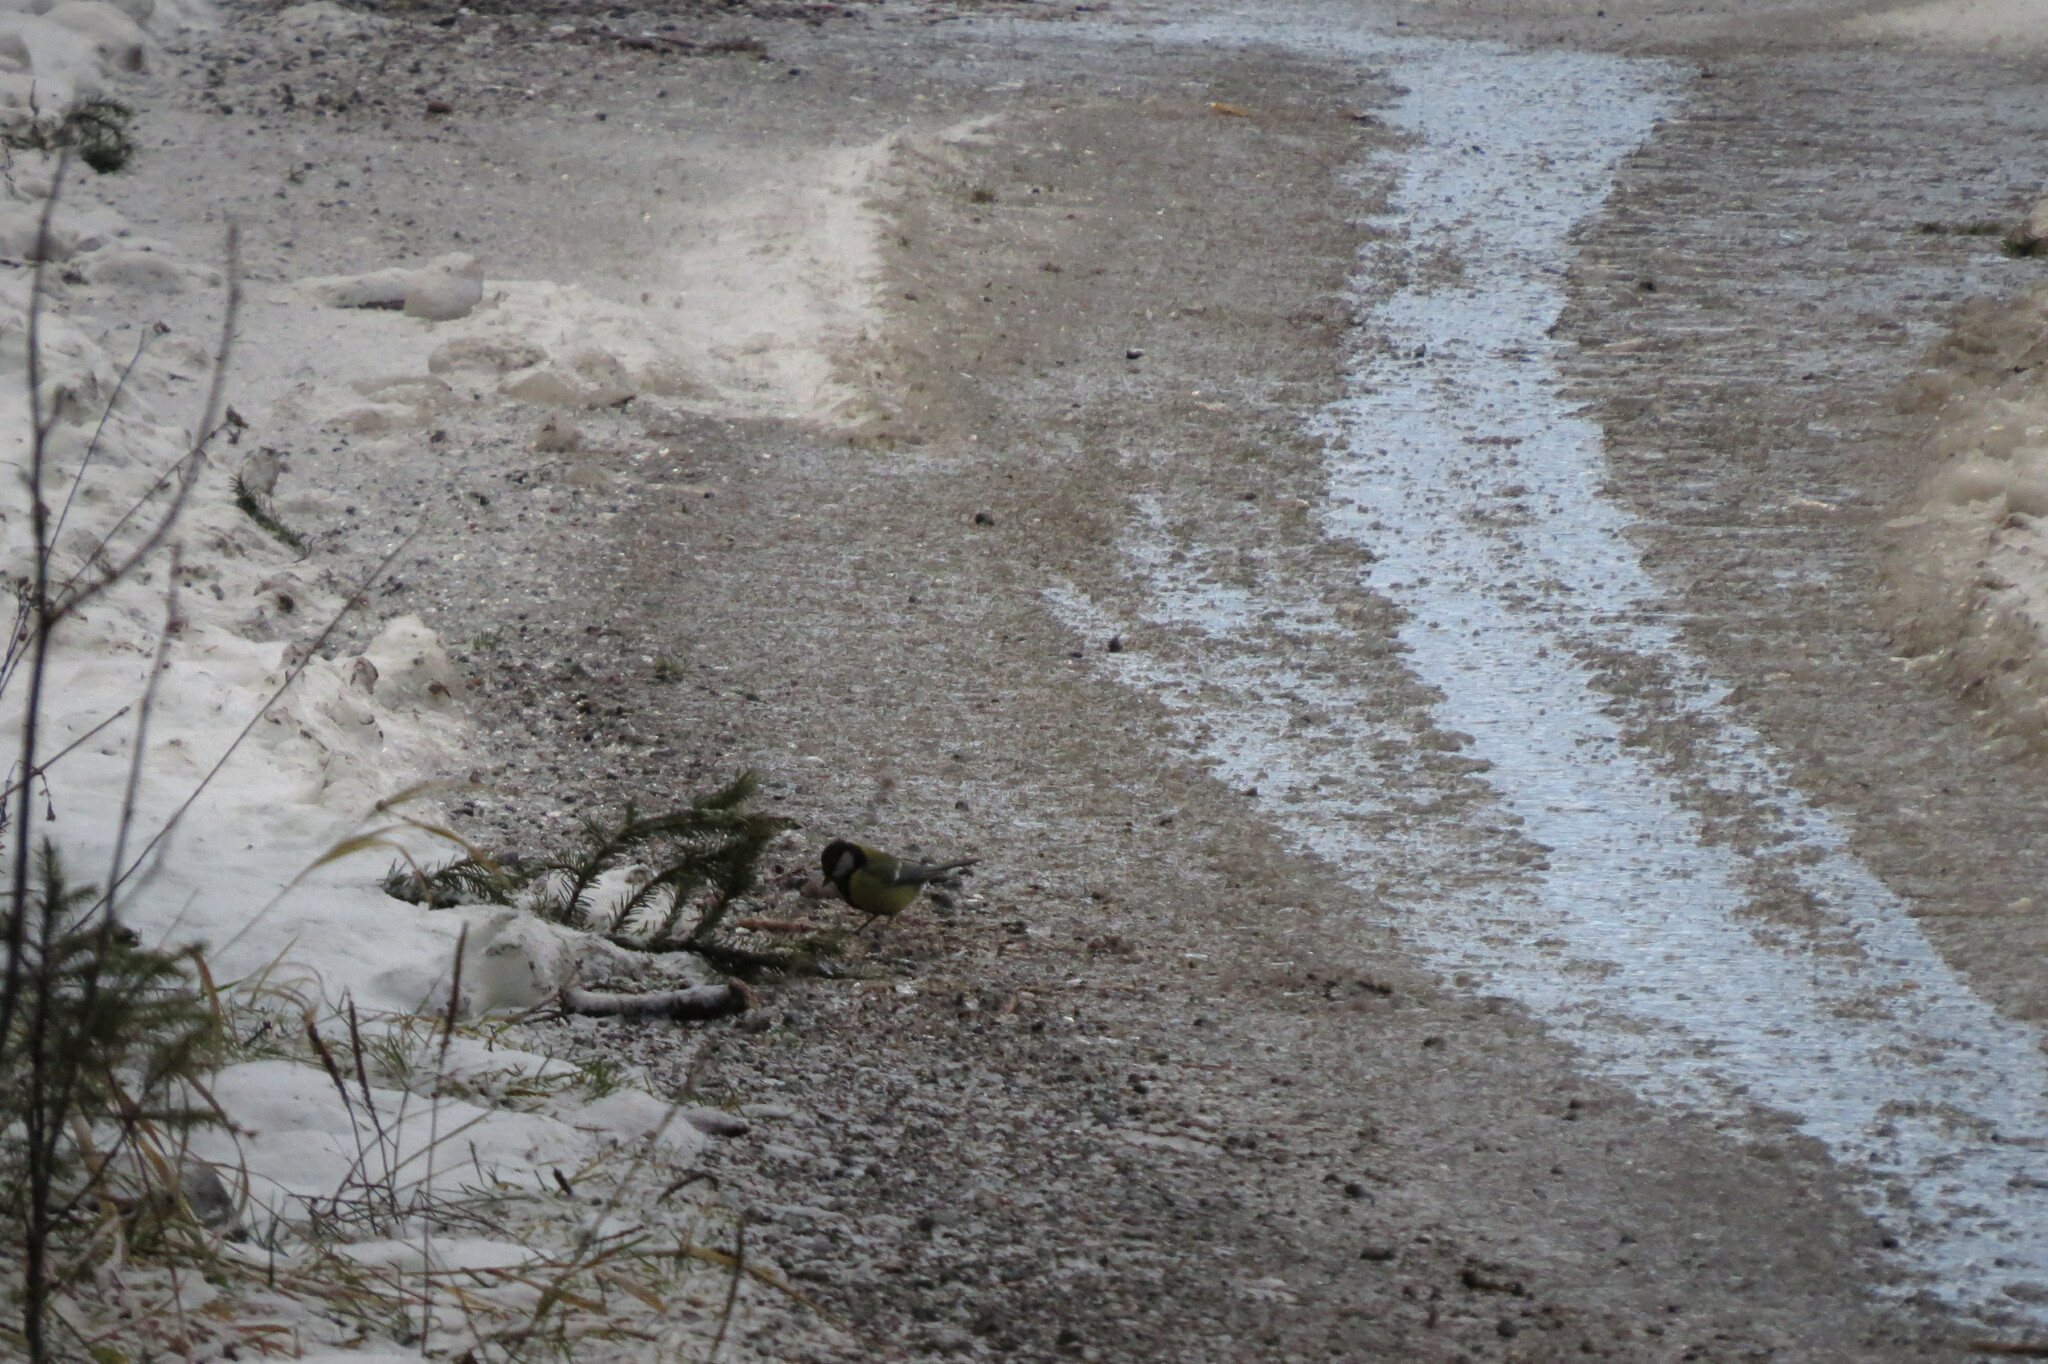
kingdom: Animalia
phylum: Chordata
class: Aves
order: Passeriformes
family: Paridae
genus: Parus
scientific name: Parus major
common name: Great tit
